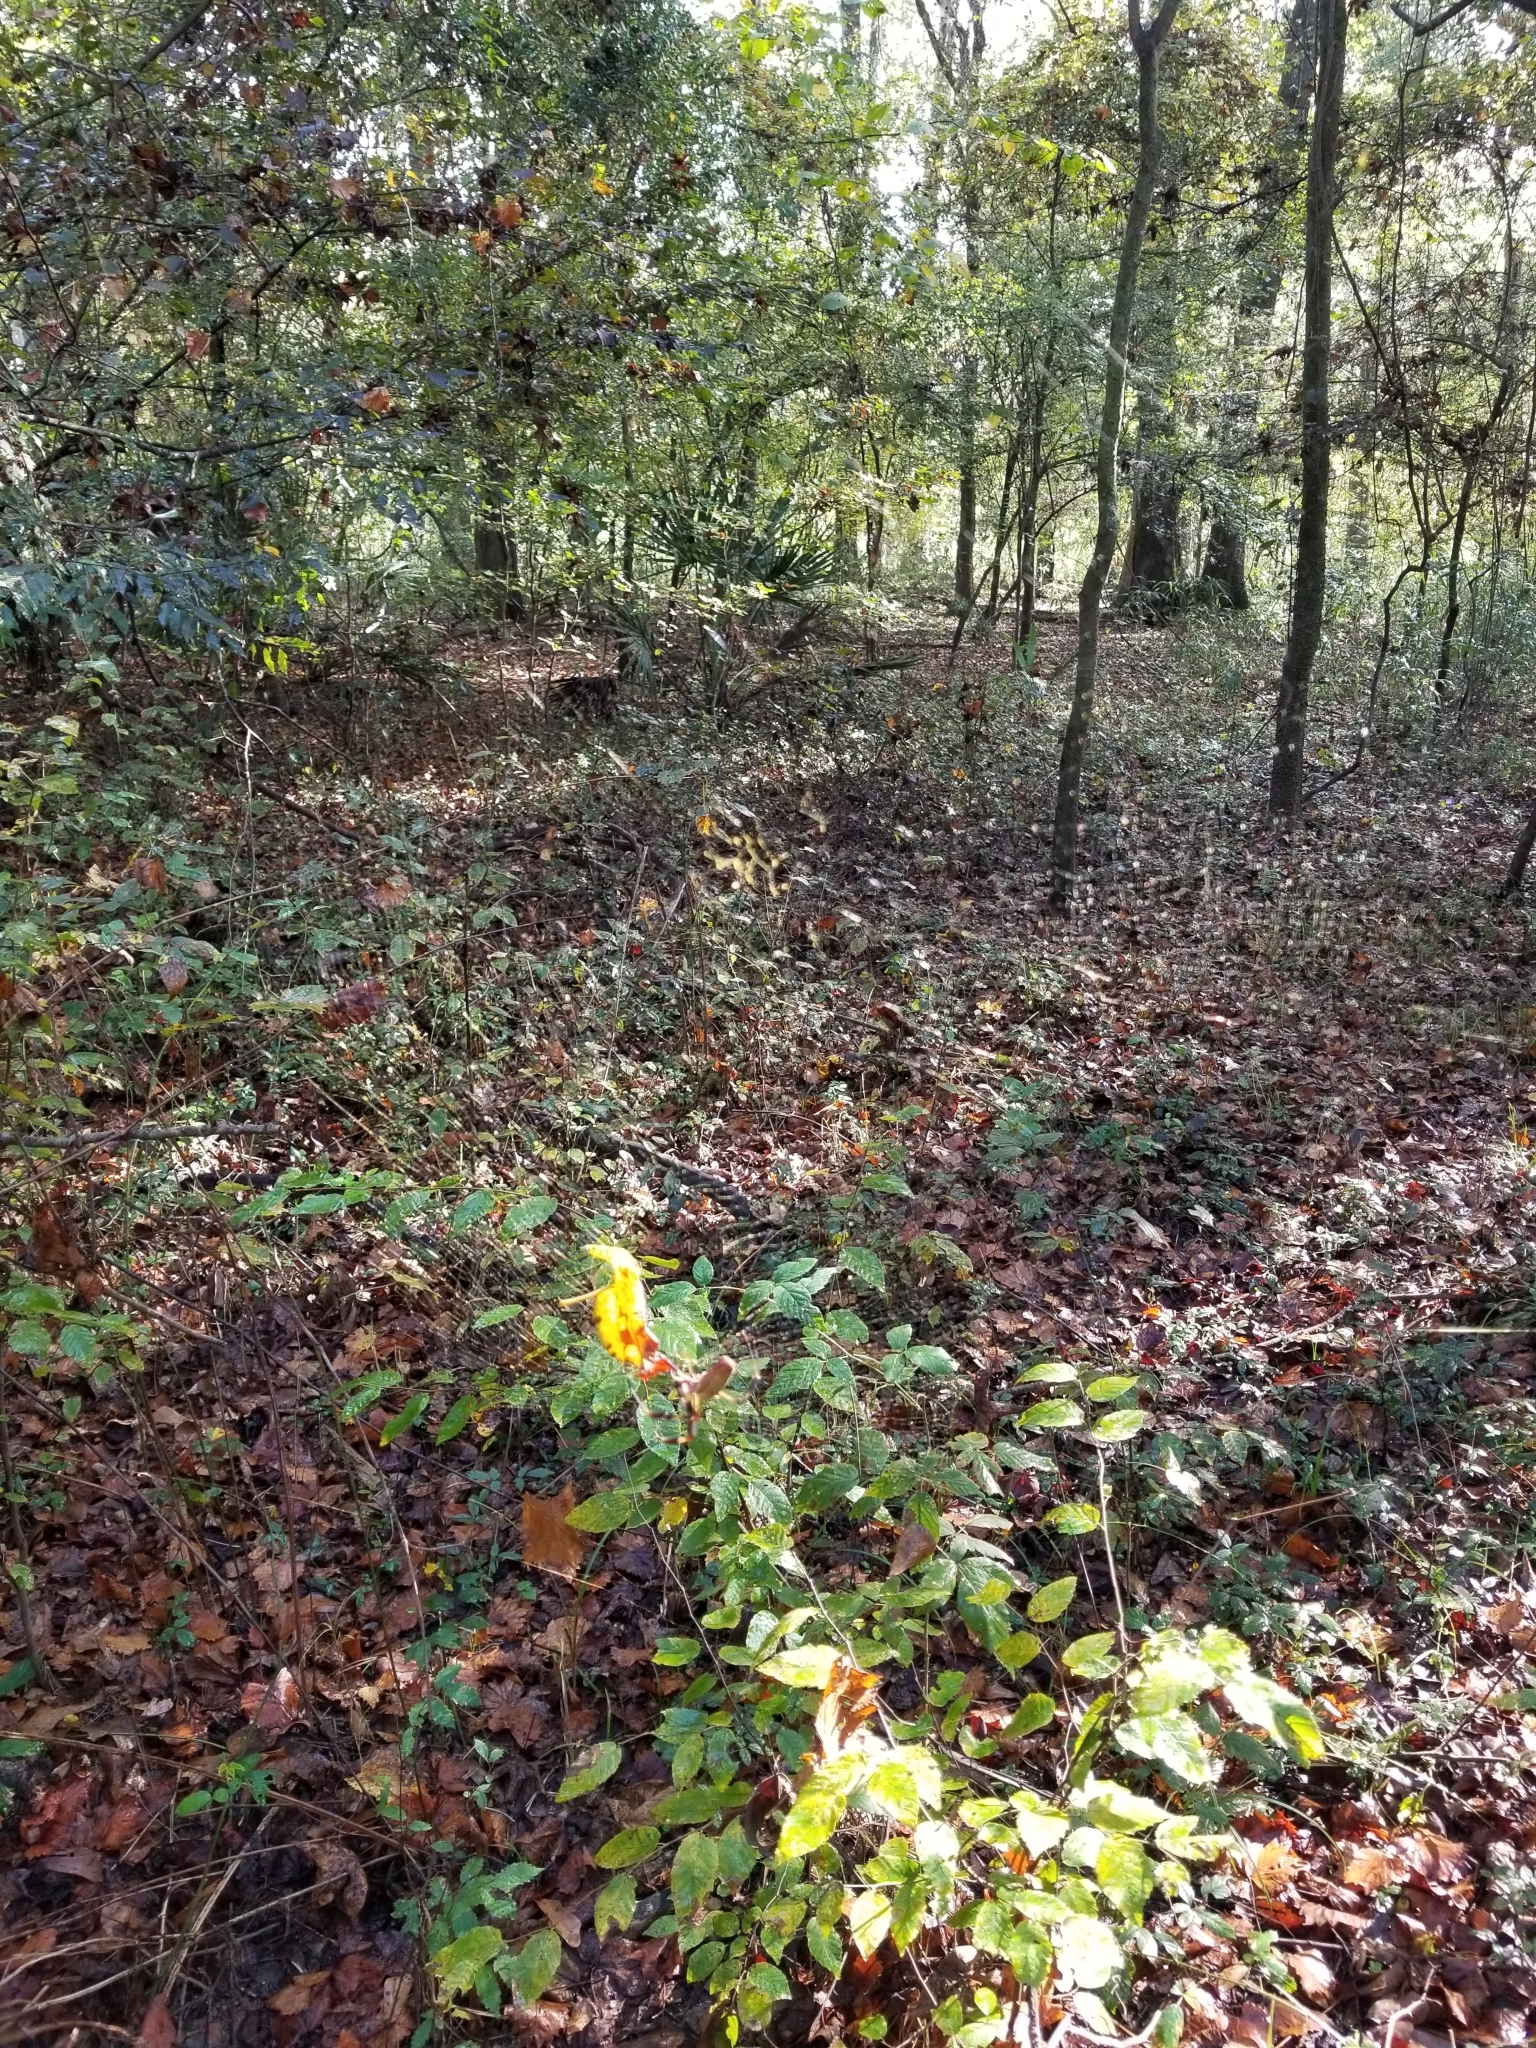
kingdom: Animalia
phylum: Arthropoda
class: Arachnida
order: Araneae
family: Araneidae
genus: Trichonephila
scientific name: Trichonephila clavipes
